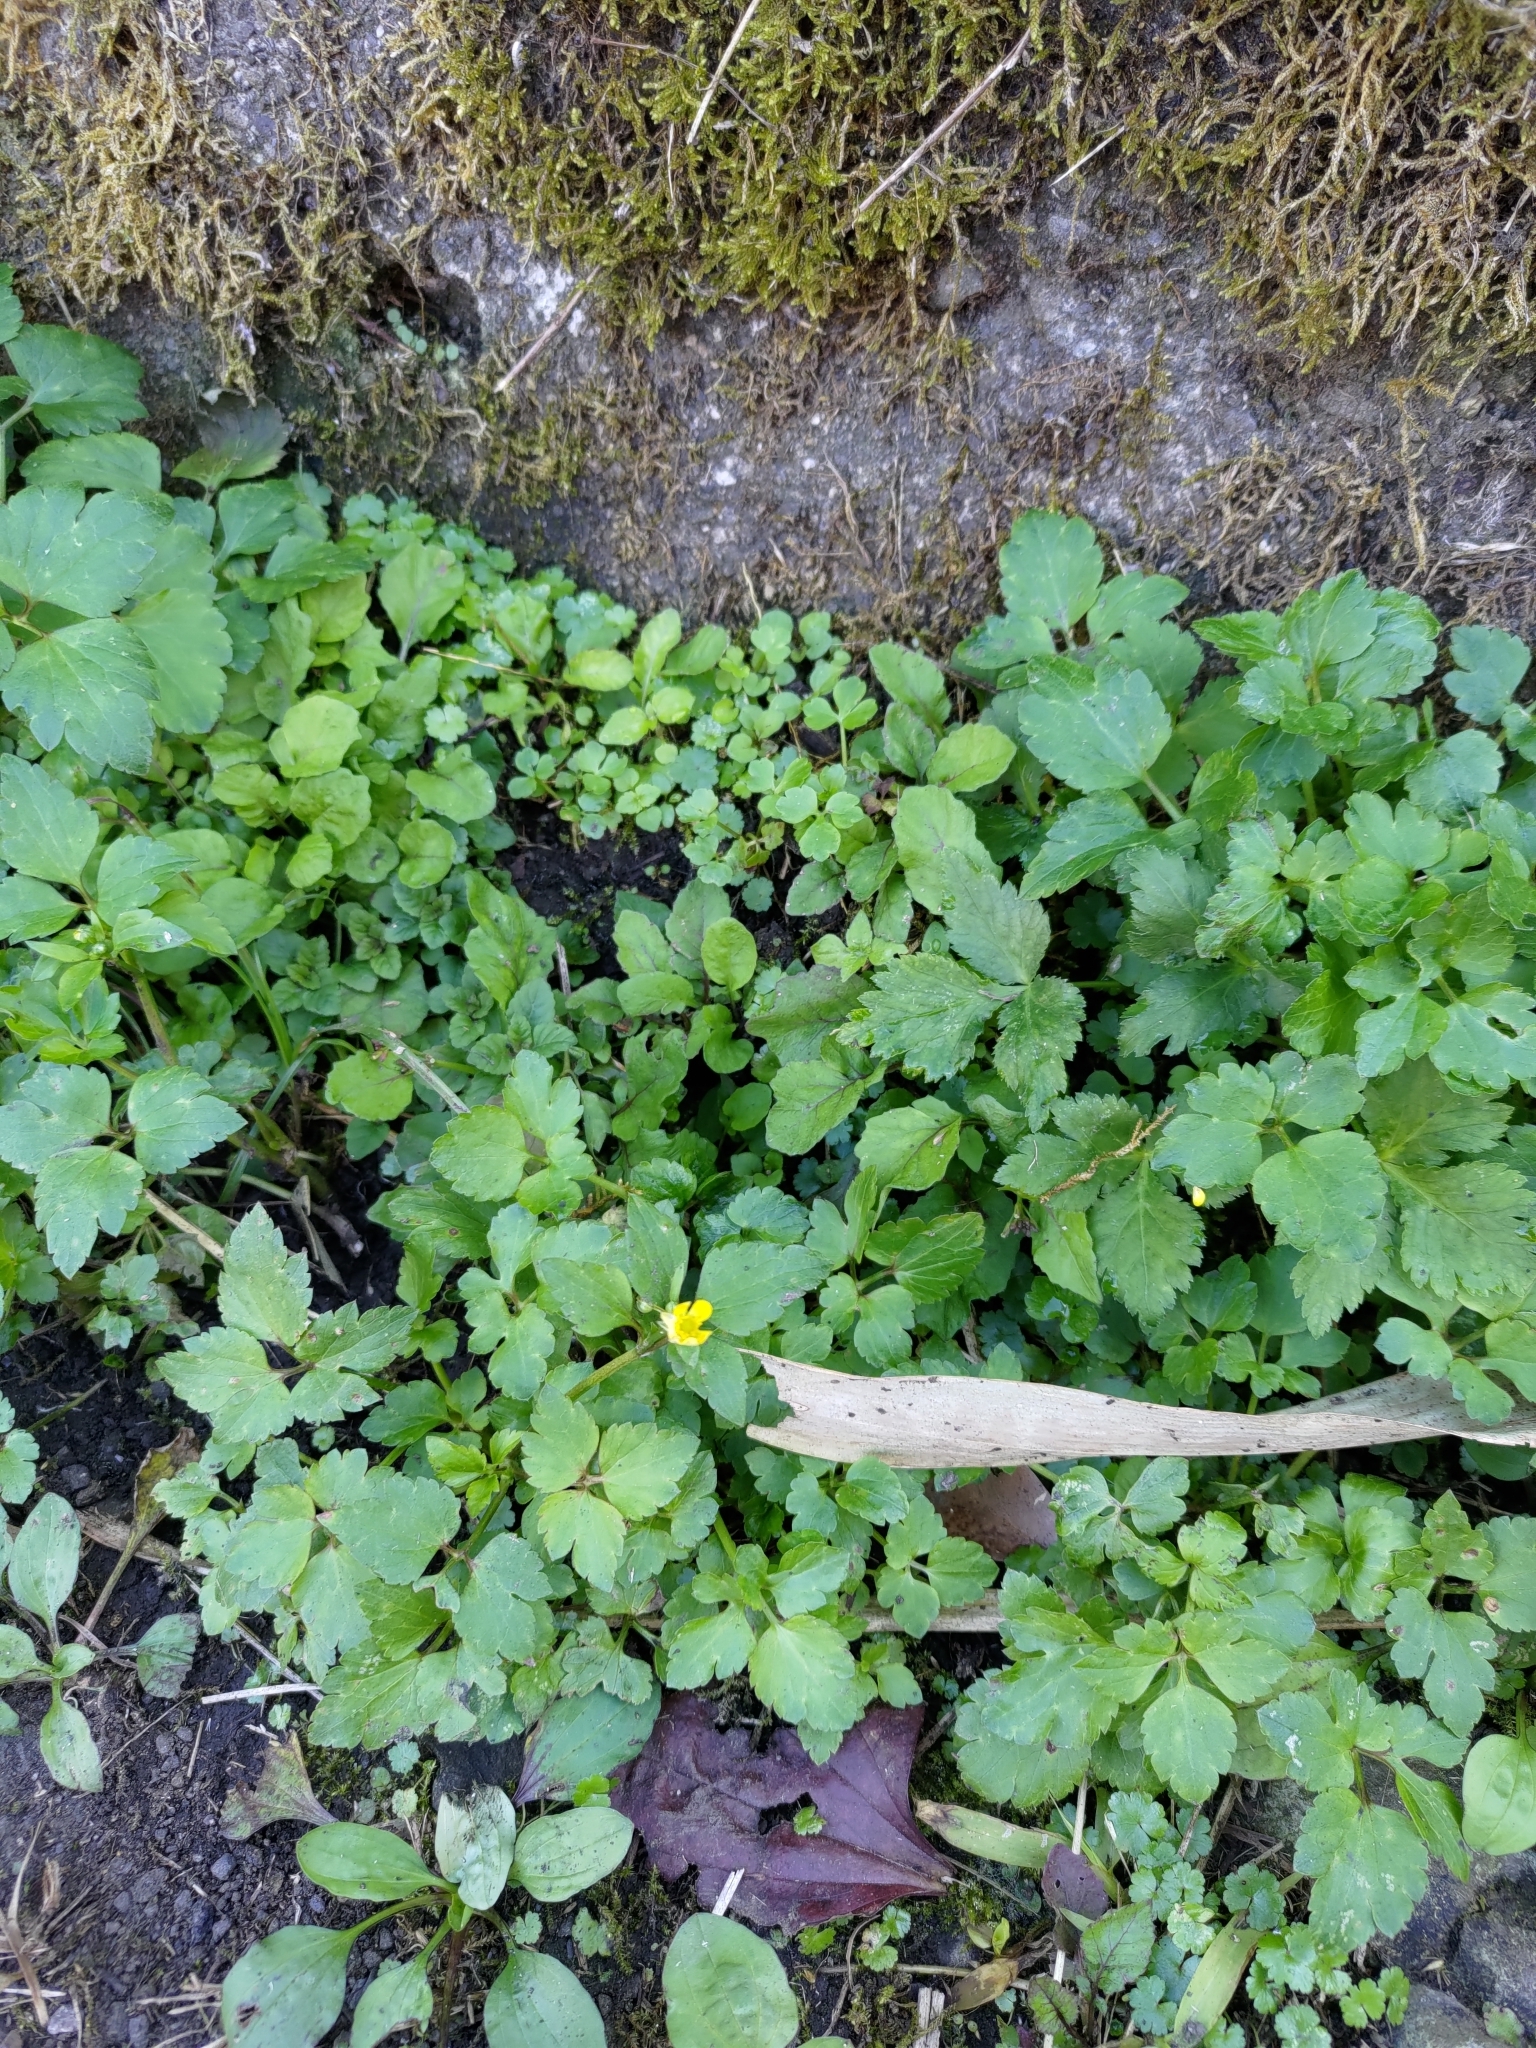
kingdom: Plantae
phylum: Tracheophyta
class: Magnoliopsida
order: Ranunculales
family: Ranunculaceae
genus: Ranunculus
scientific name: Ranunculus cantoniensis
